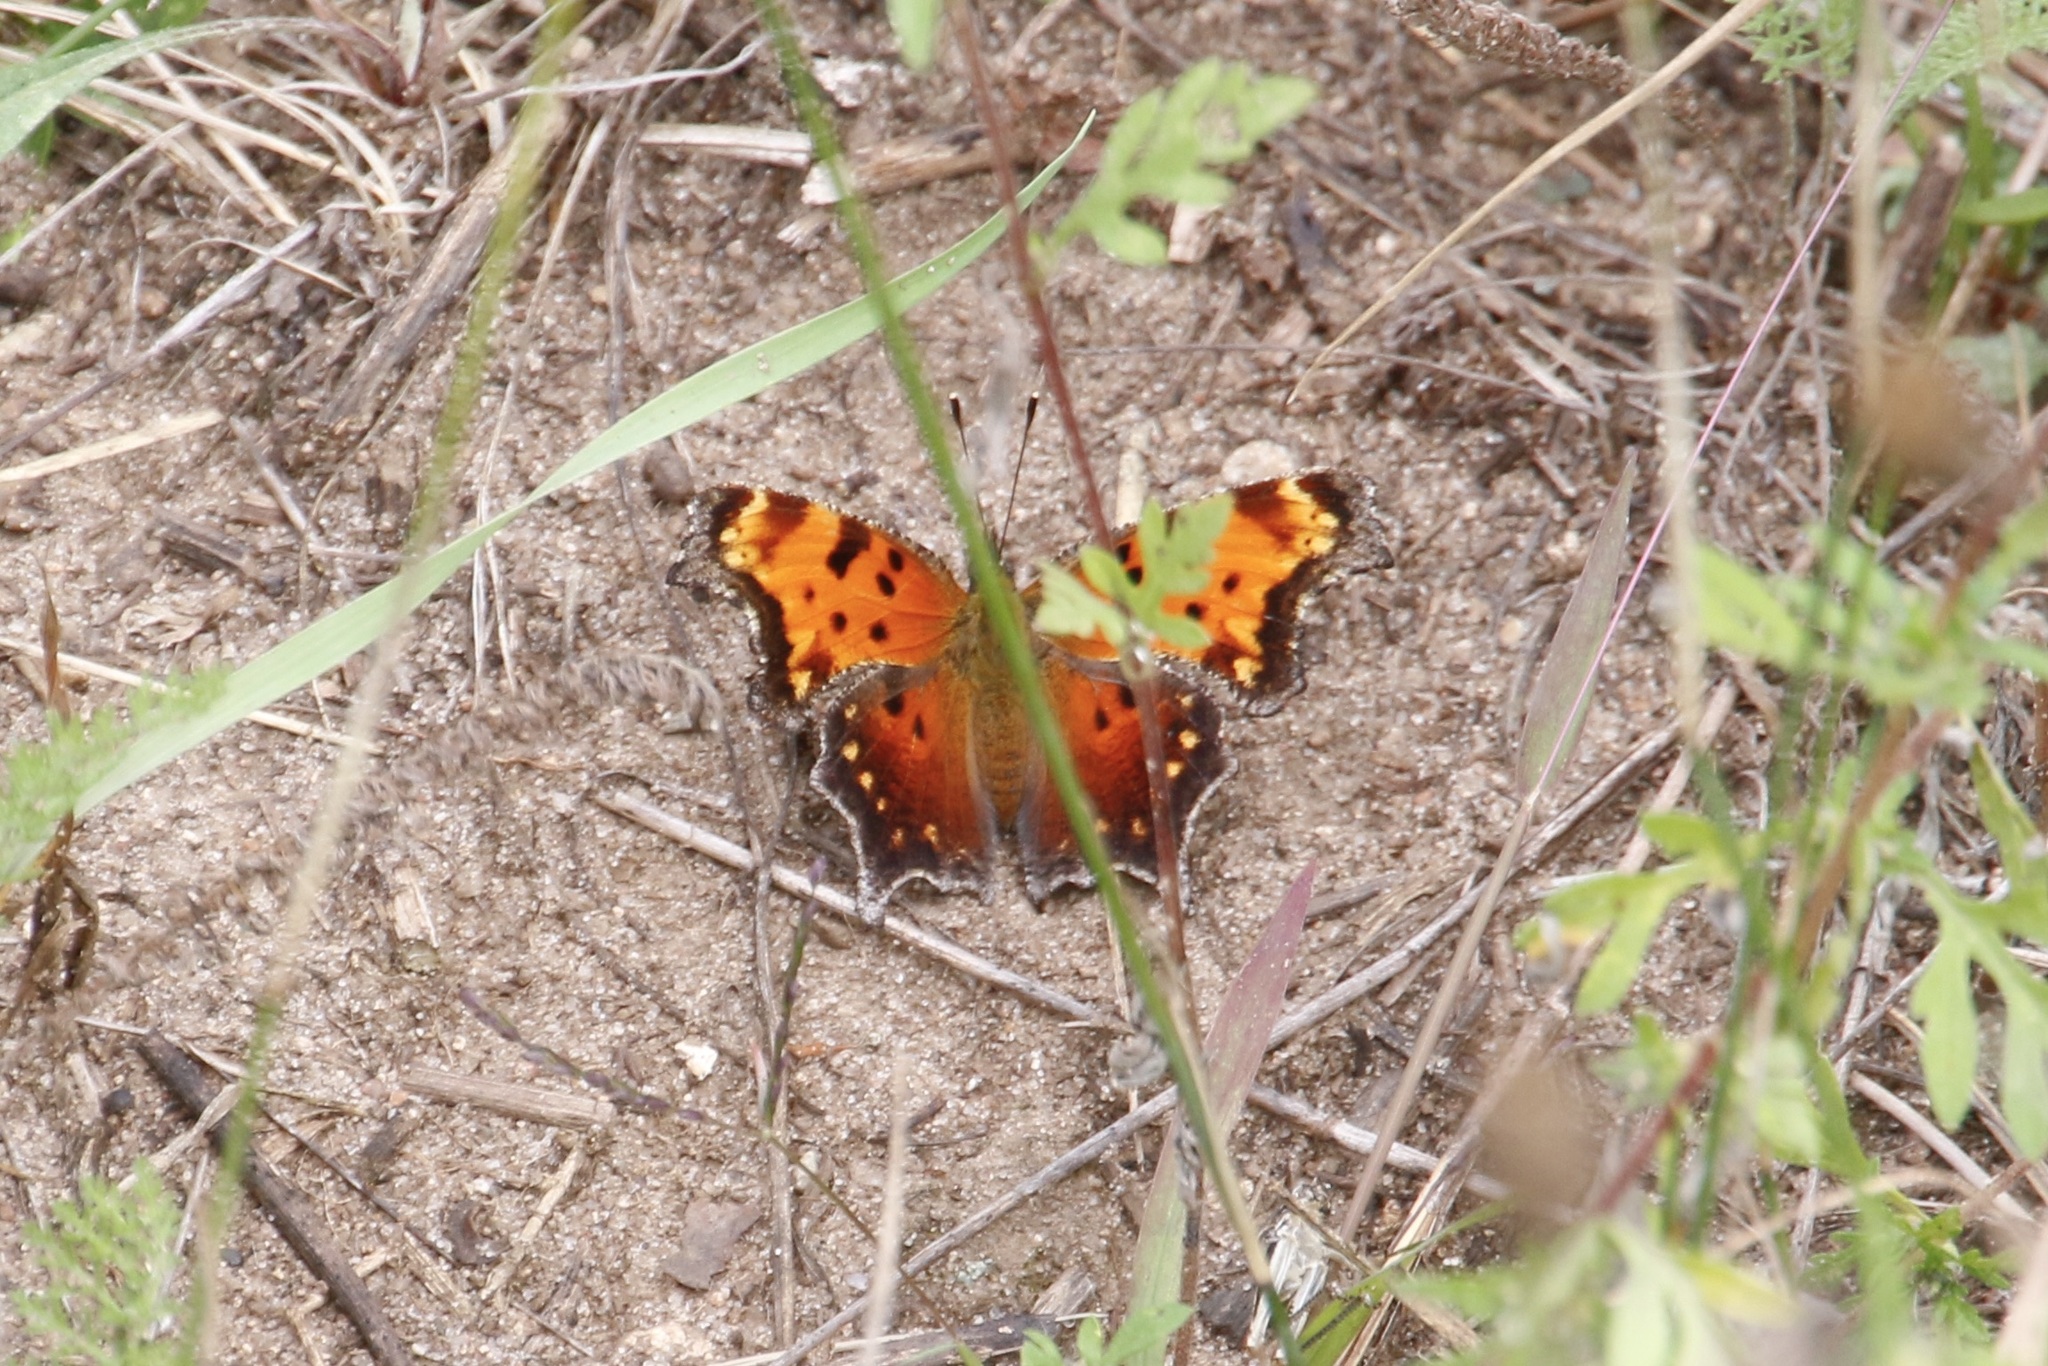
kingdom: Animalia
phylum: Arthropoda
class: Insecta
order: Lepidoptera
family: Nymphalidae
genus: Polygonia
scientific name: Polygonia progne
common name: Gray comma
